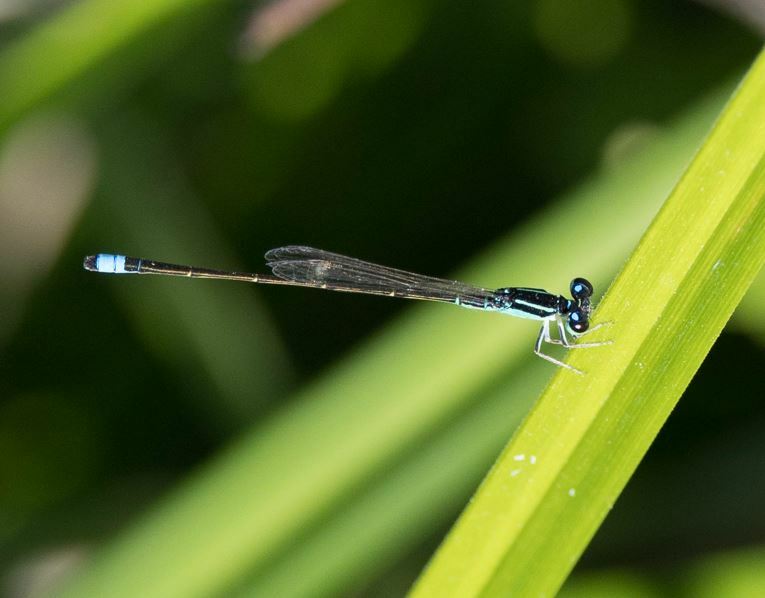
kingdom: Animalia
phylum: Arthropoda
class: Insecta
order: Odonata
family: Coenagrionidae
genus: Ischnura
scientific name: Ischnura capreolus
